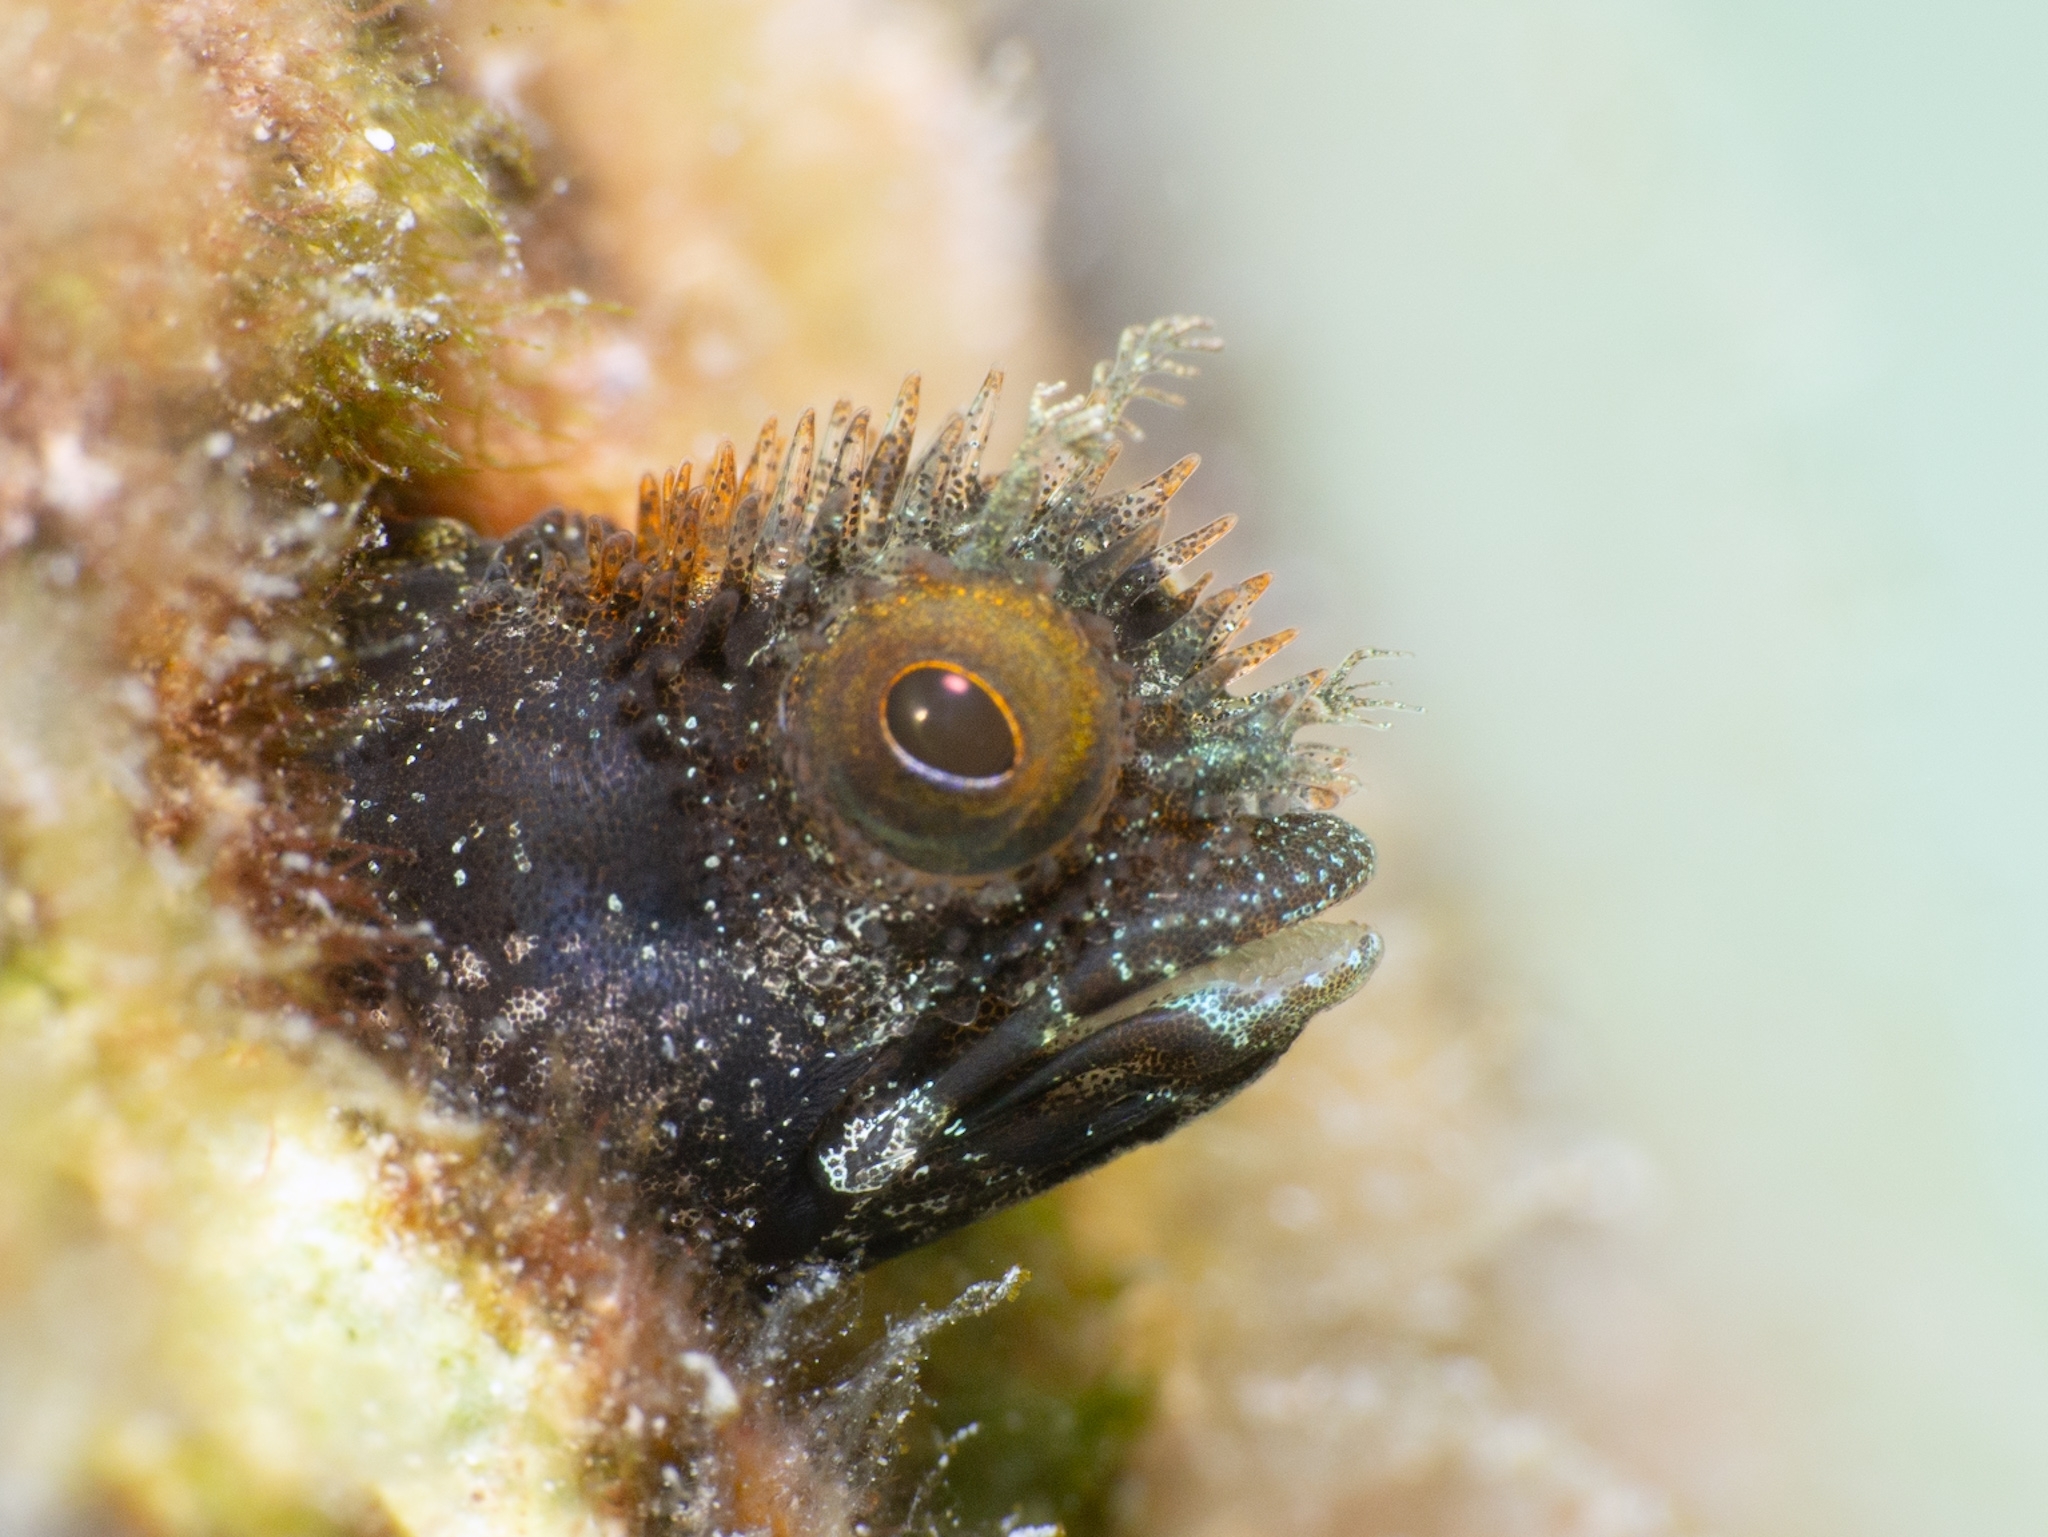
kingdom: Animalia
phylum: Chordata
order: Perciformes
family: Chaenopsidae
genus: Acanthemblemaria
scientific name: Acanthemblemaria maria
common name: Secretary blenny
